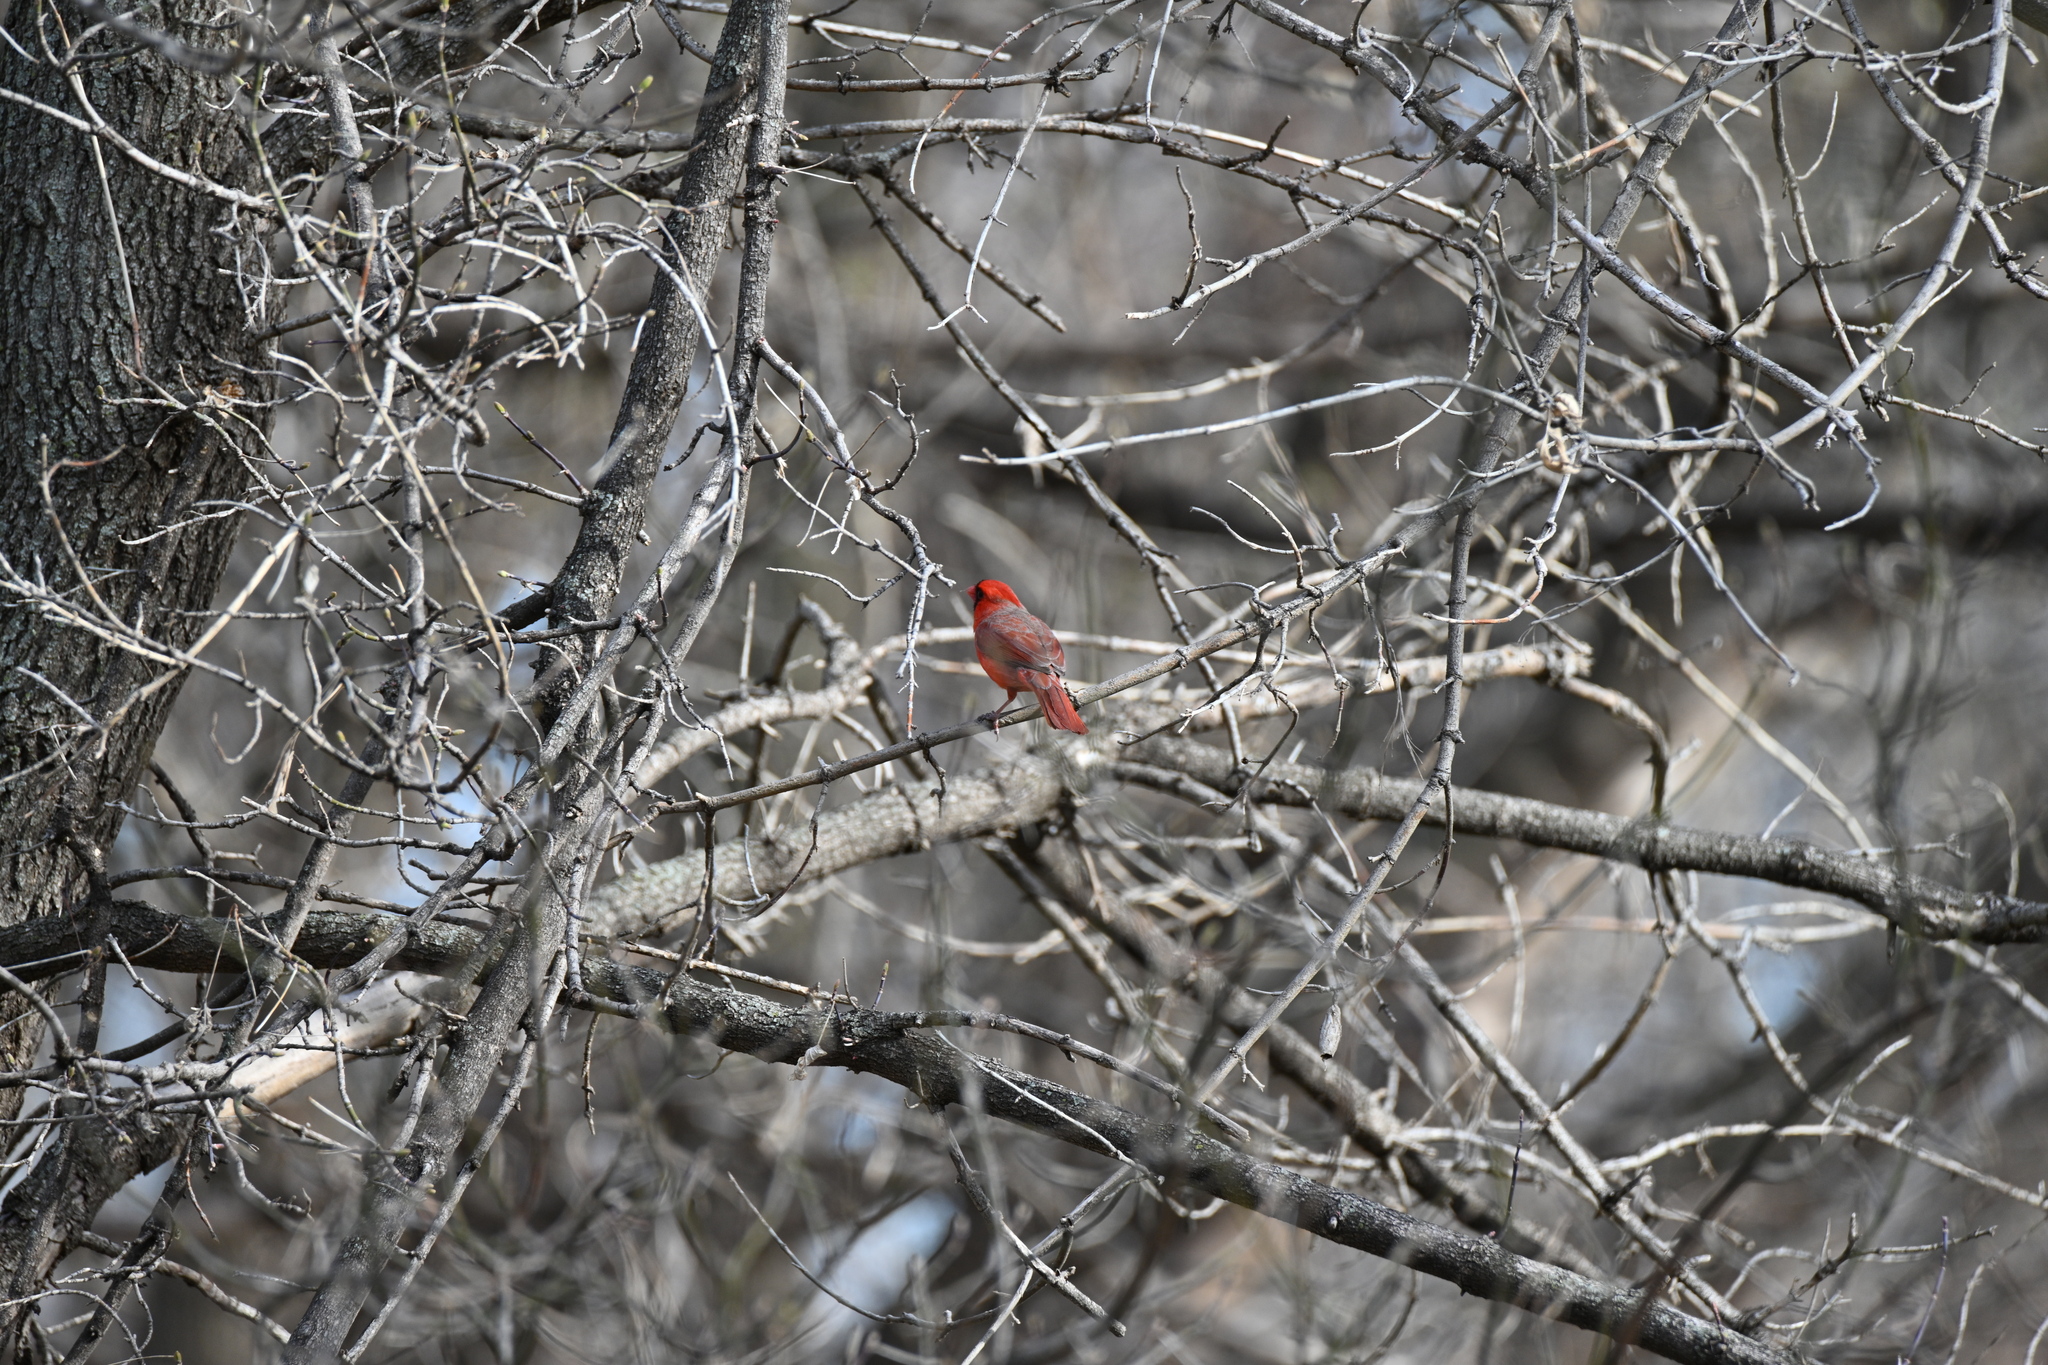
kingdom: Animalia
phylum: Chordata
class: Aves
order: Passeriformes
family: Cardinalidae
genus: Cardinalis
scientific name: Cardinalis cardinalis
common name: Northern cardinal
